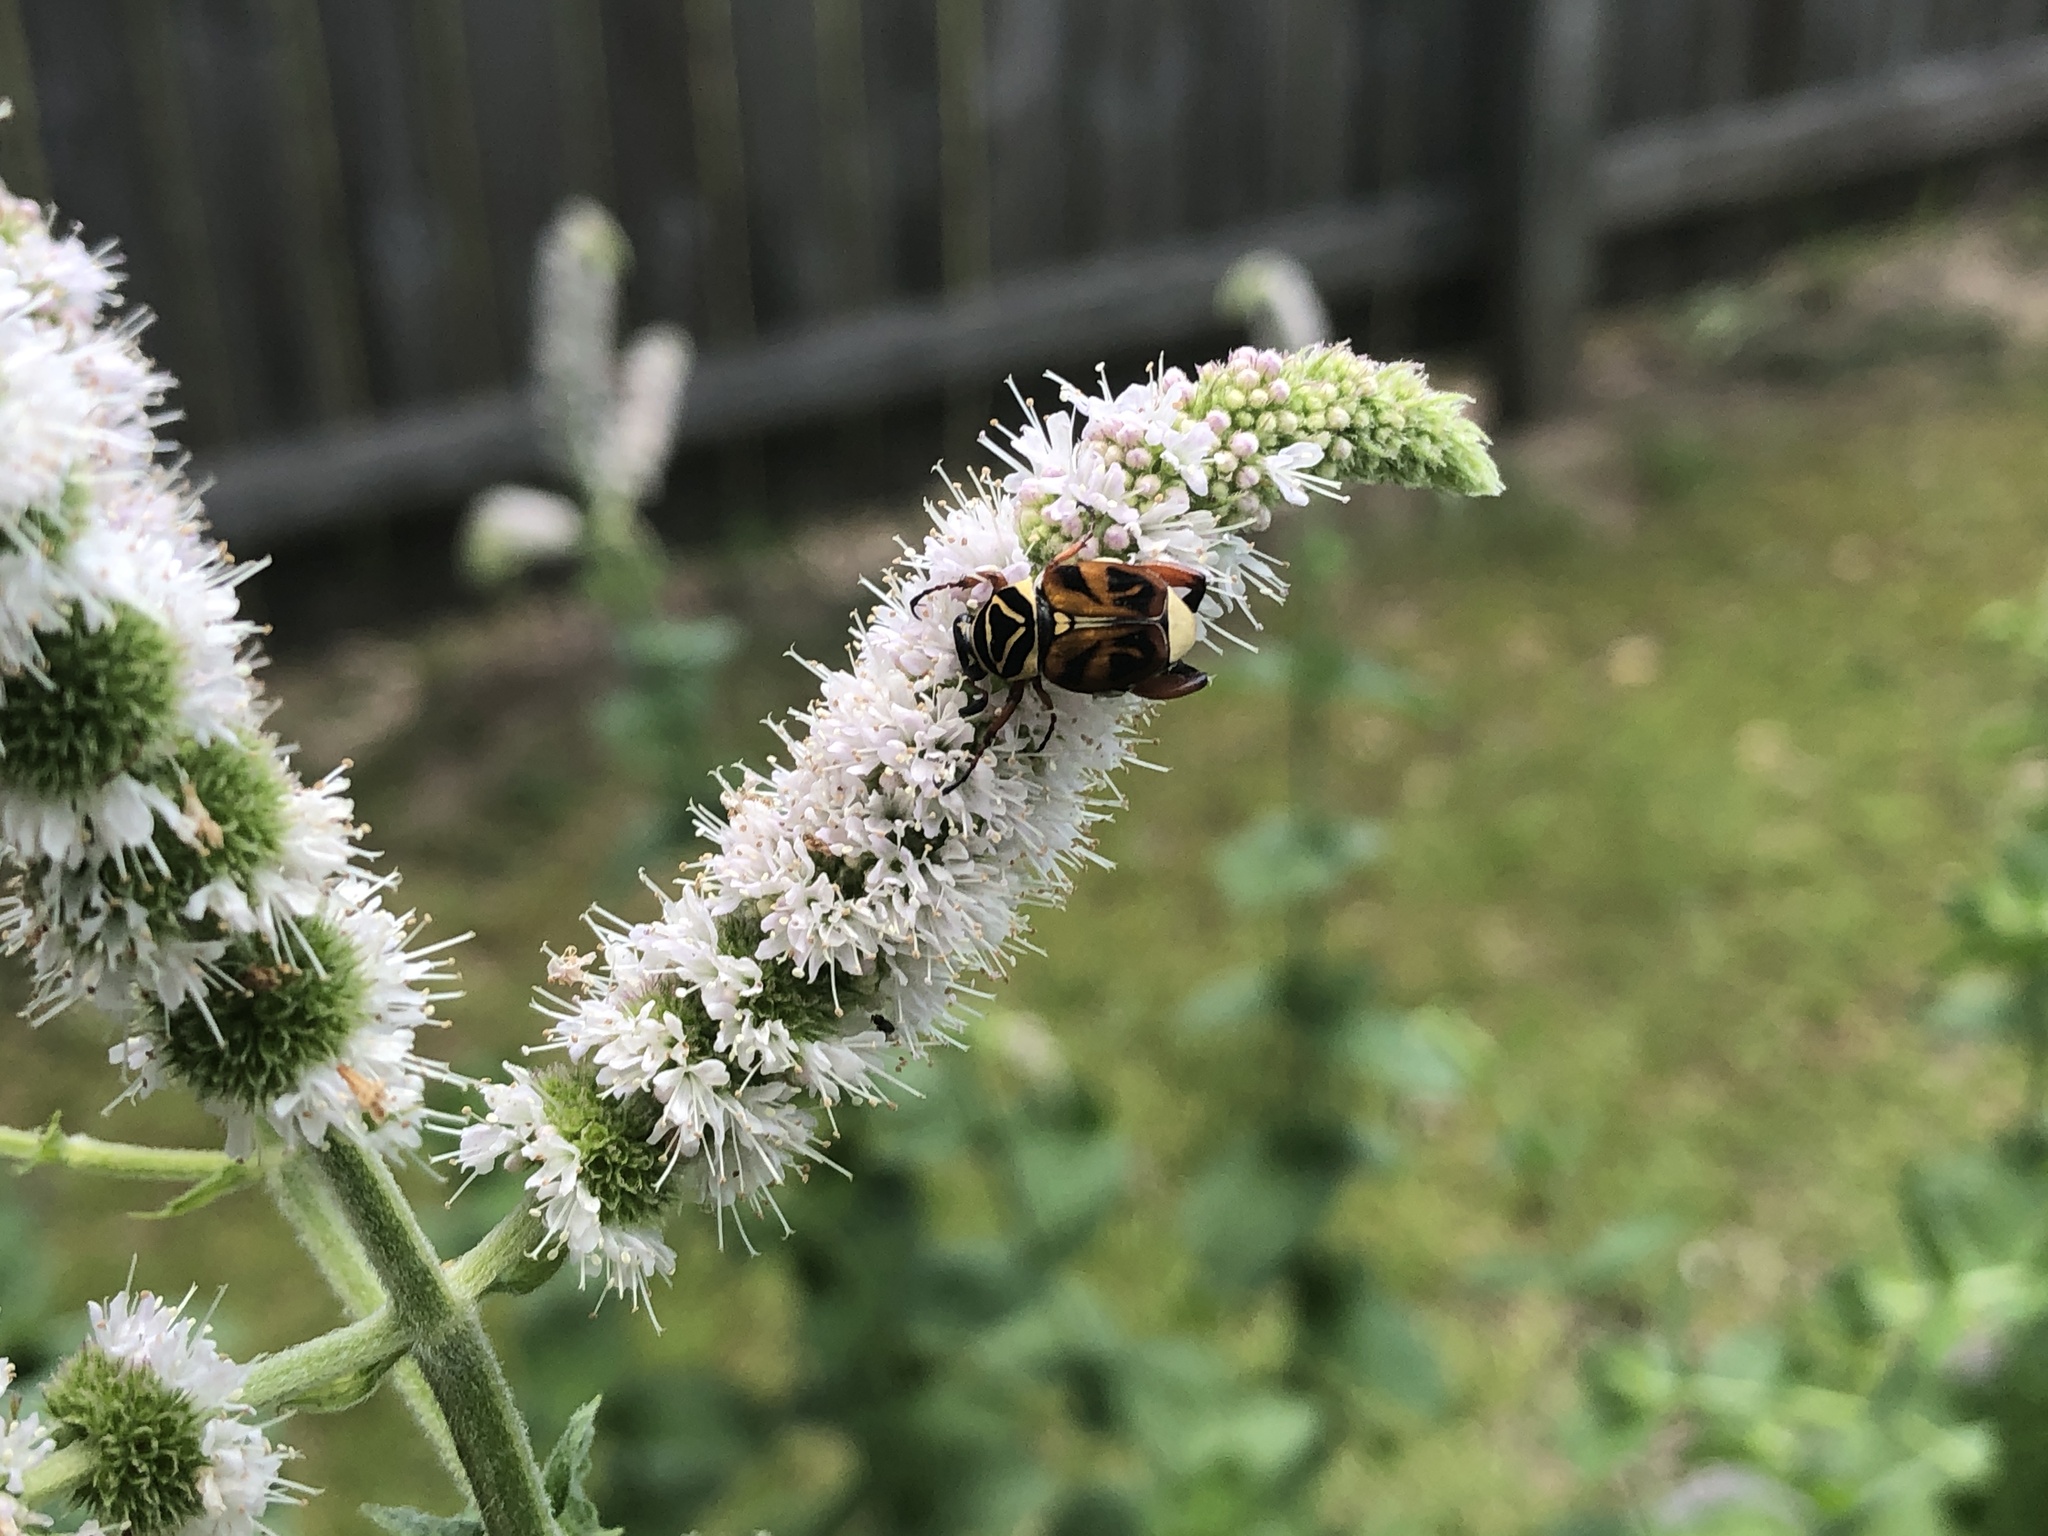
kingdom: Animalia
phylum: Arthropoda
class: Insecta
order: Coleoptera
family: Scarabaeidae
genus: Trigonopeltastes
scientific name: Trigonopeltastes delta
